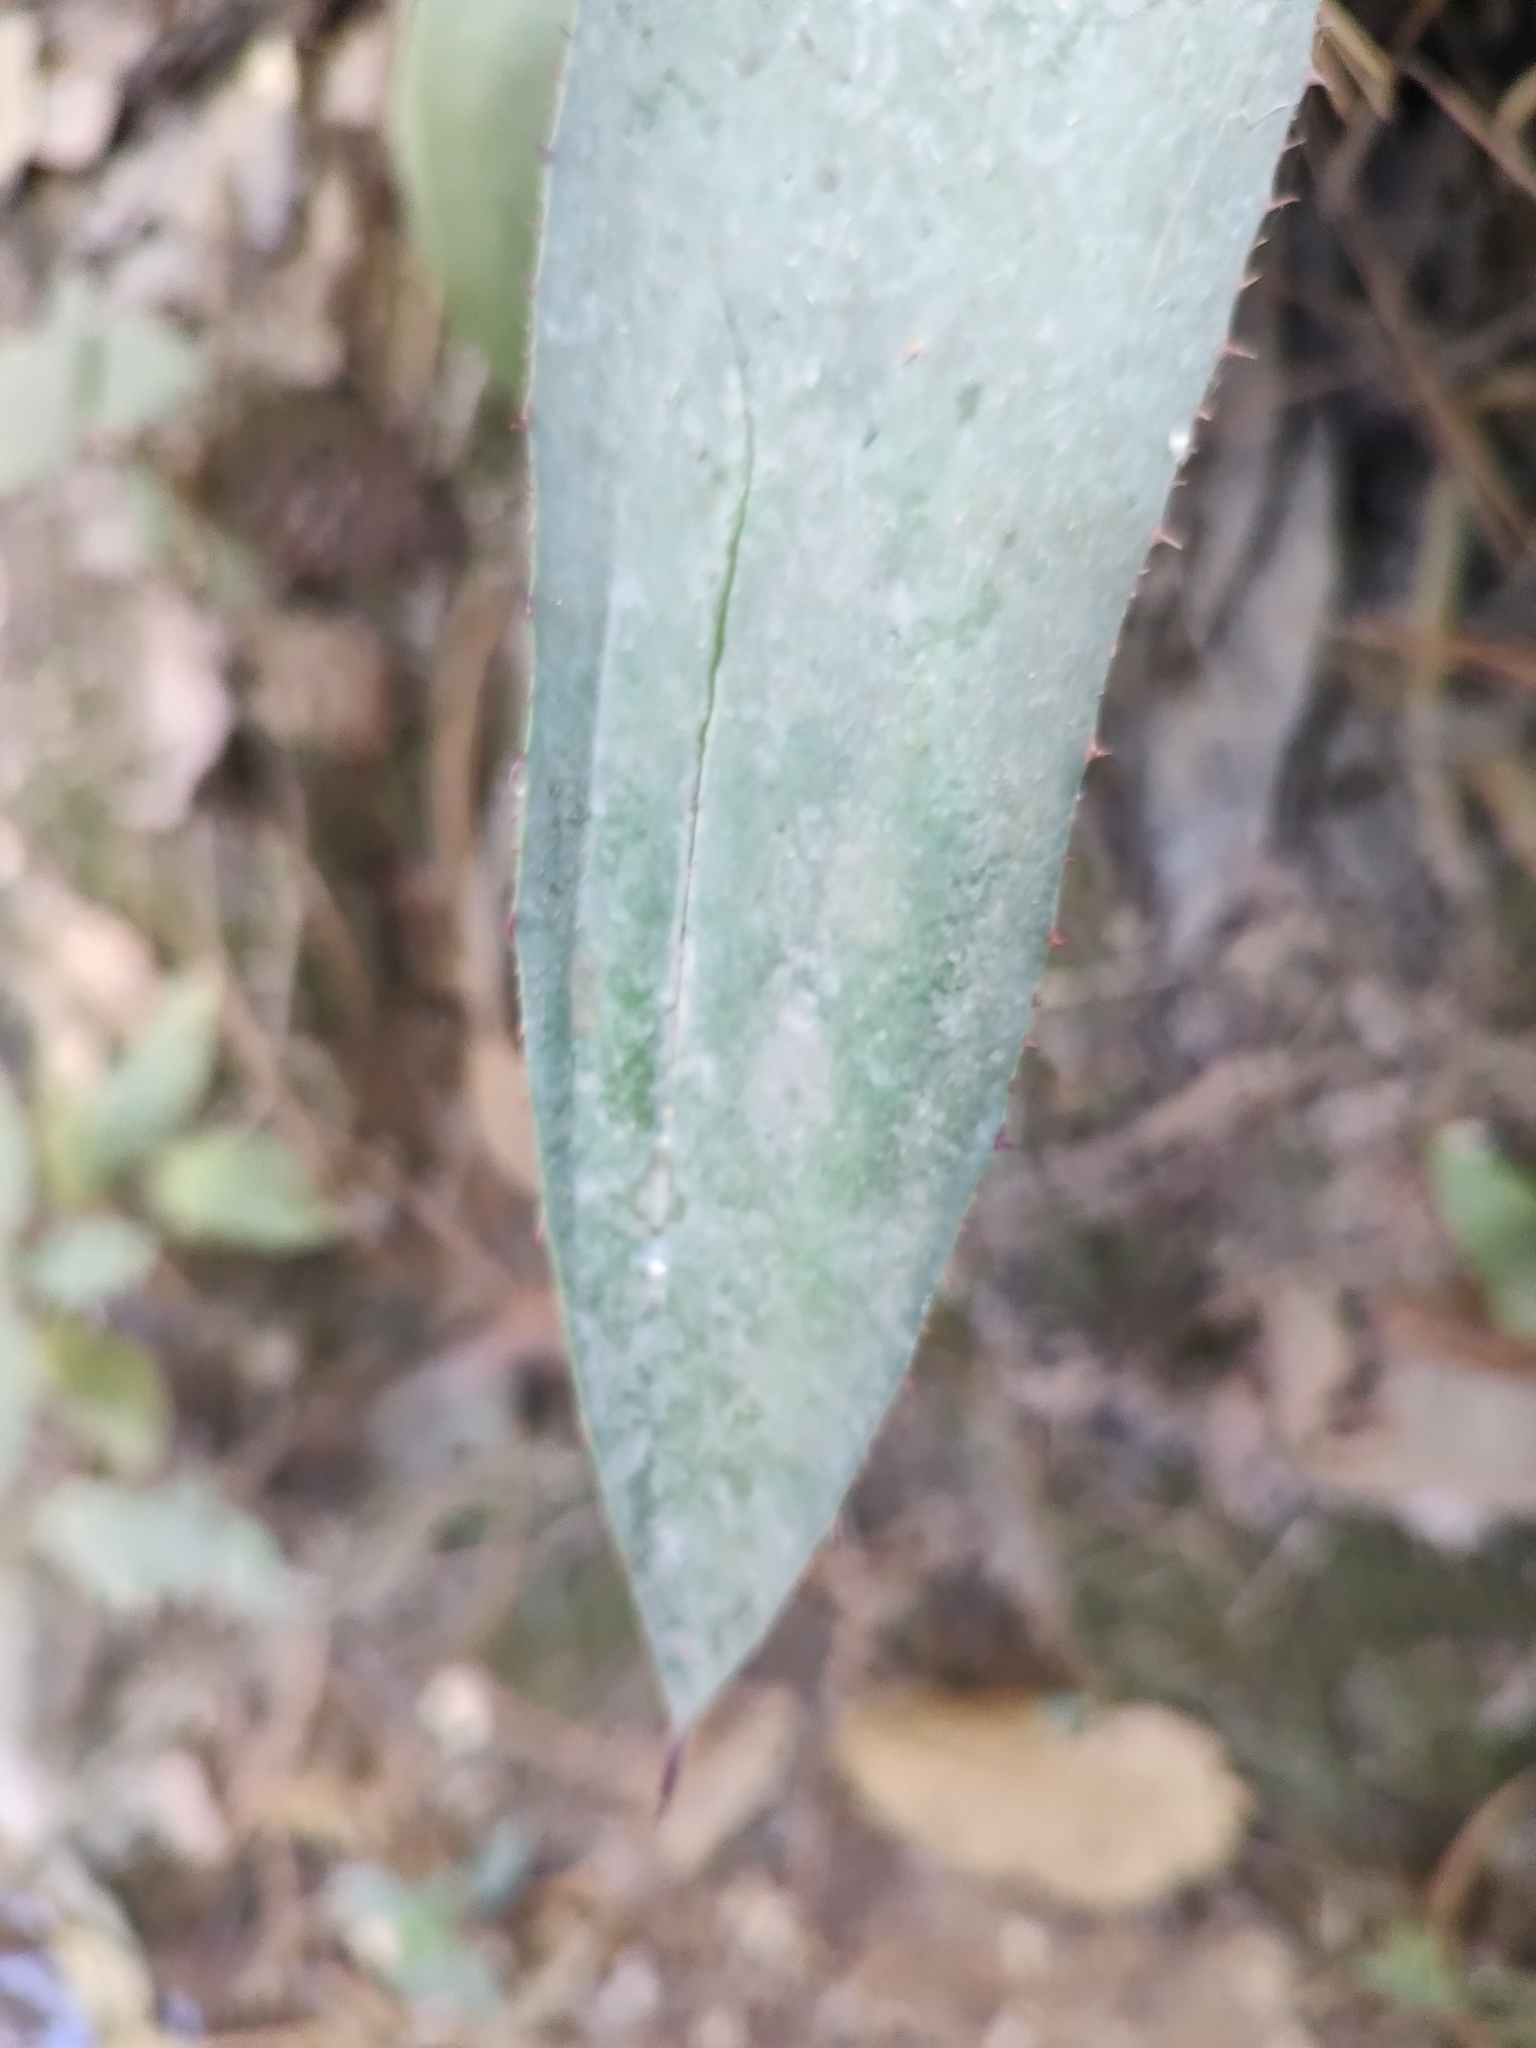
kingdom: Plantae
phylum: Tracheophyta
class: Liliopsida
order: Asparagales
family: Asparagaceae
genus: Agave
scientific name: Agave inaequidens
